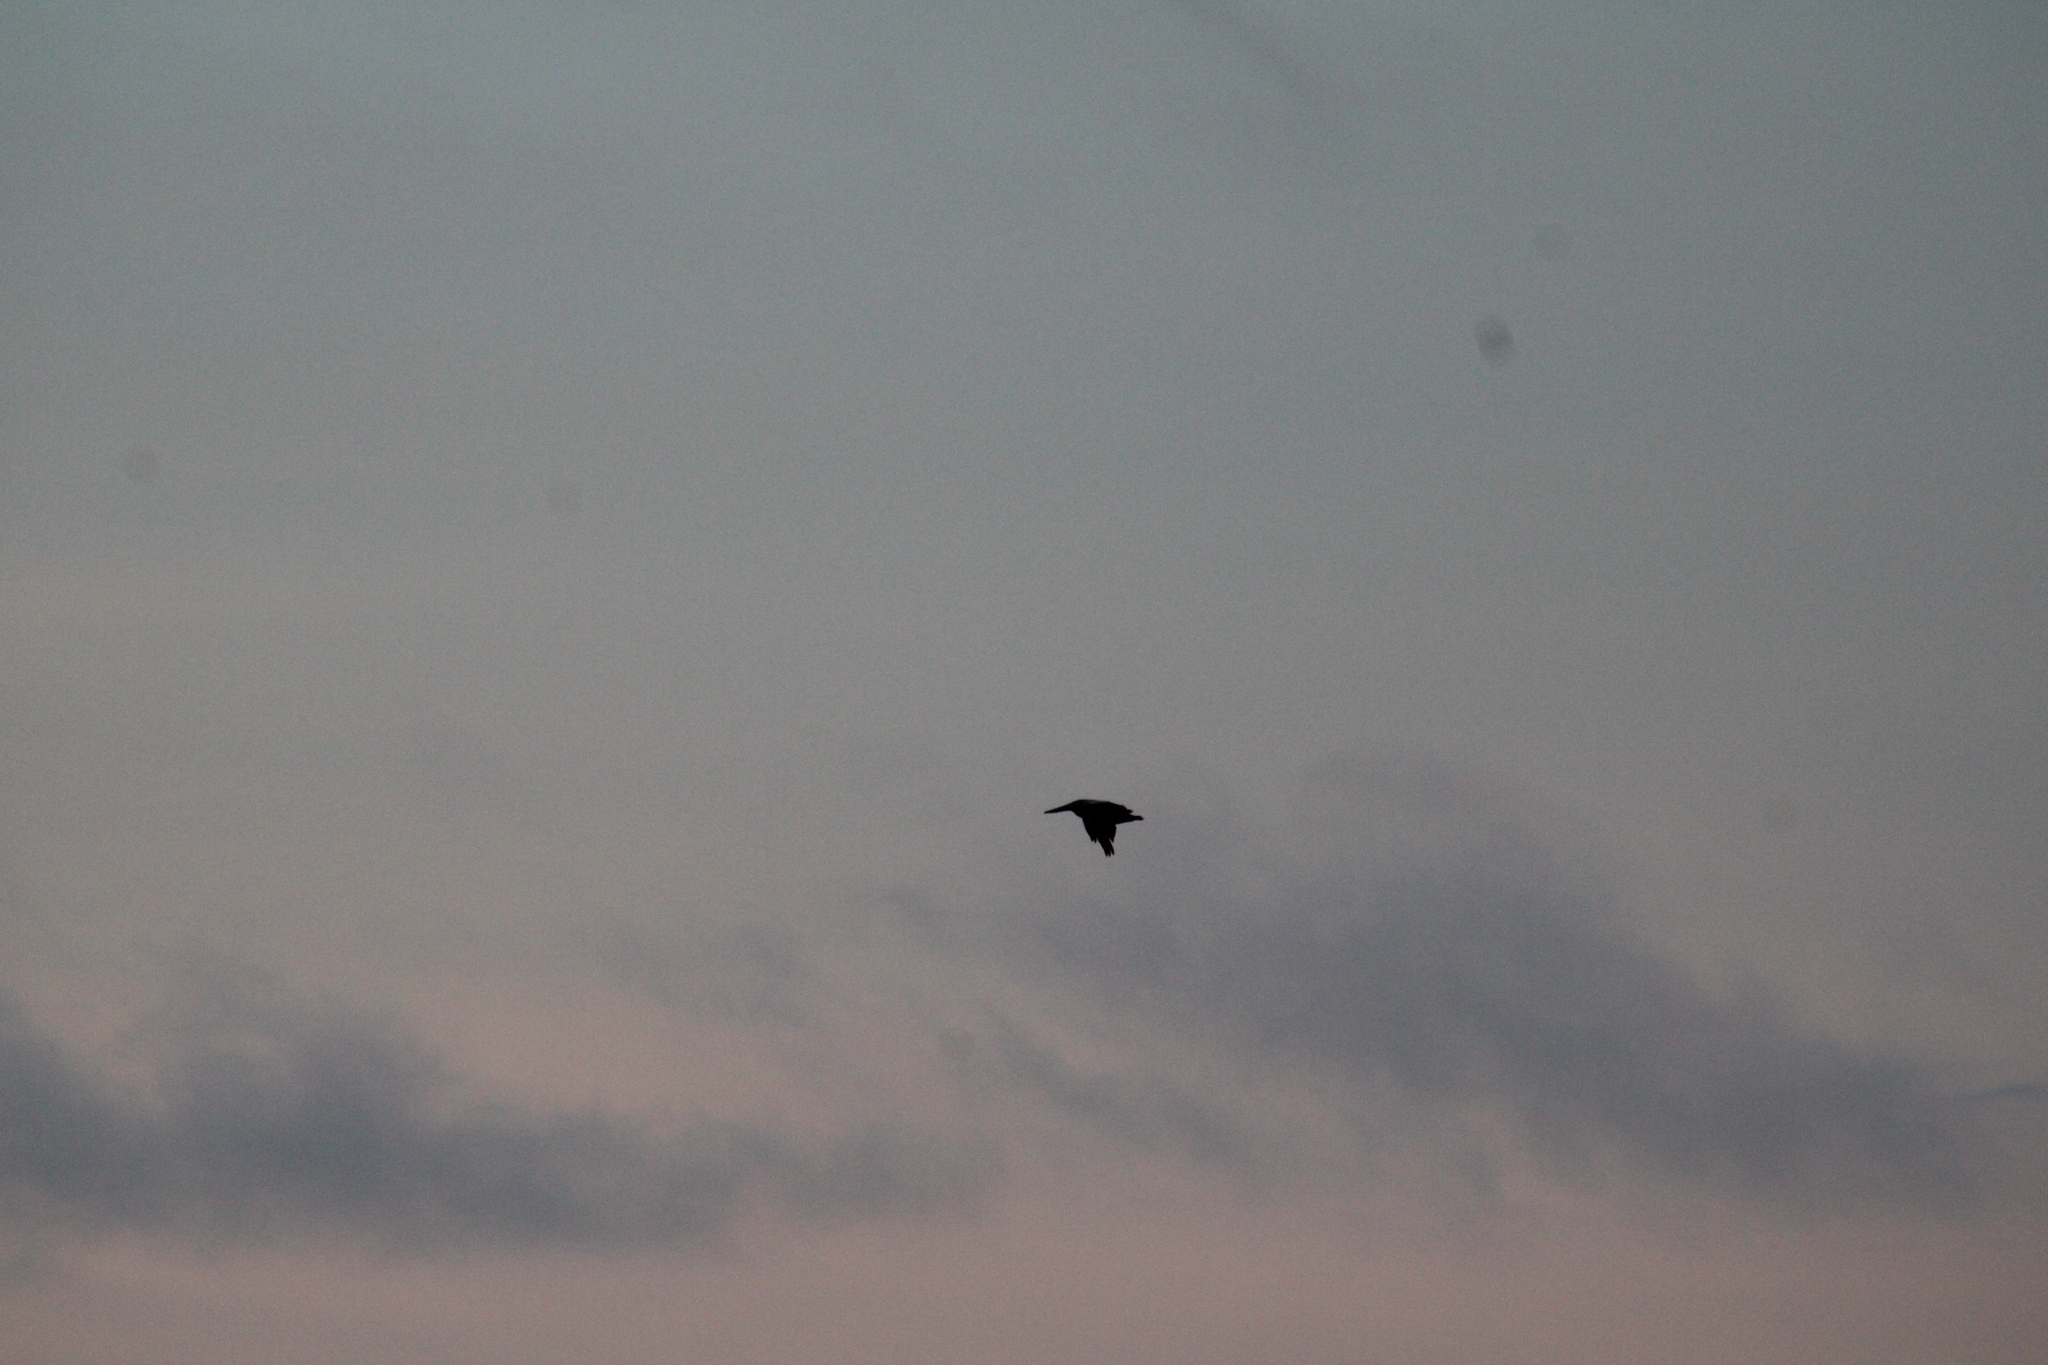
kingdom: Animalia
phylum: Chordata
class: Aves
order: Pelecaniformes
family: Pelecanidae
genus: Pelecanus
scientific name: Pelecanus occidentalis
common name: Brown pelican
